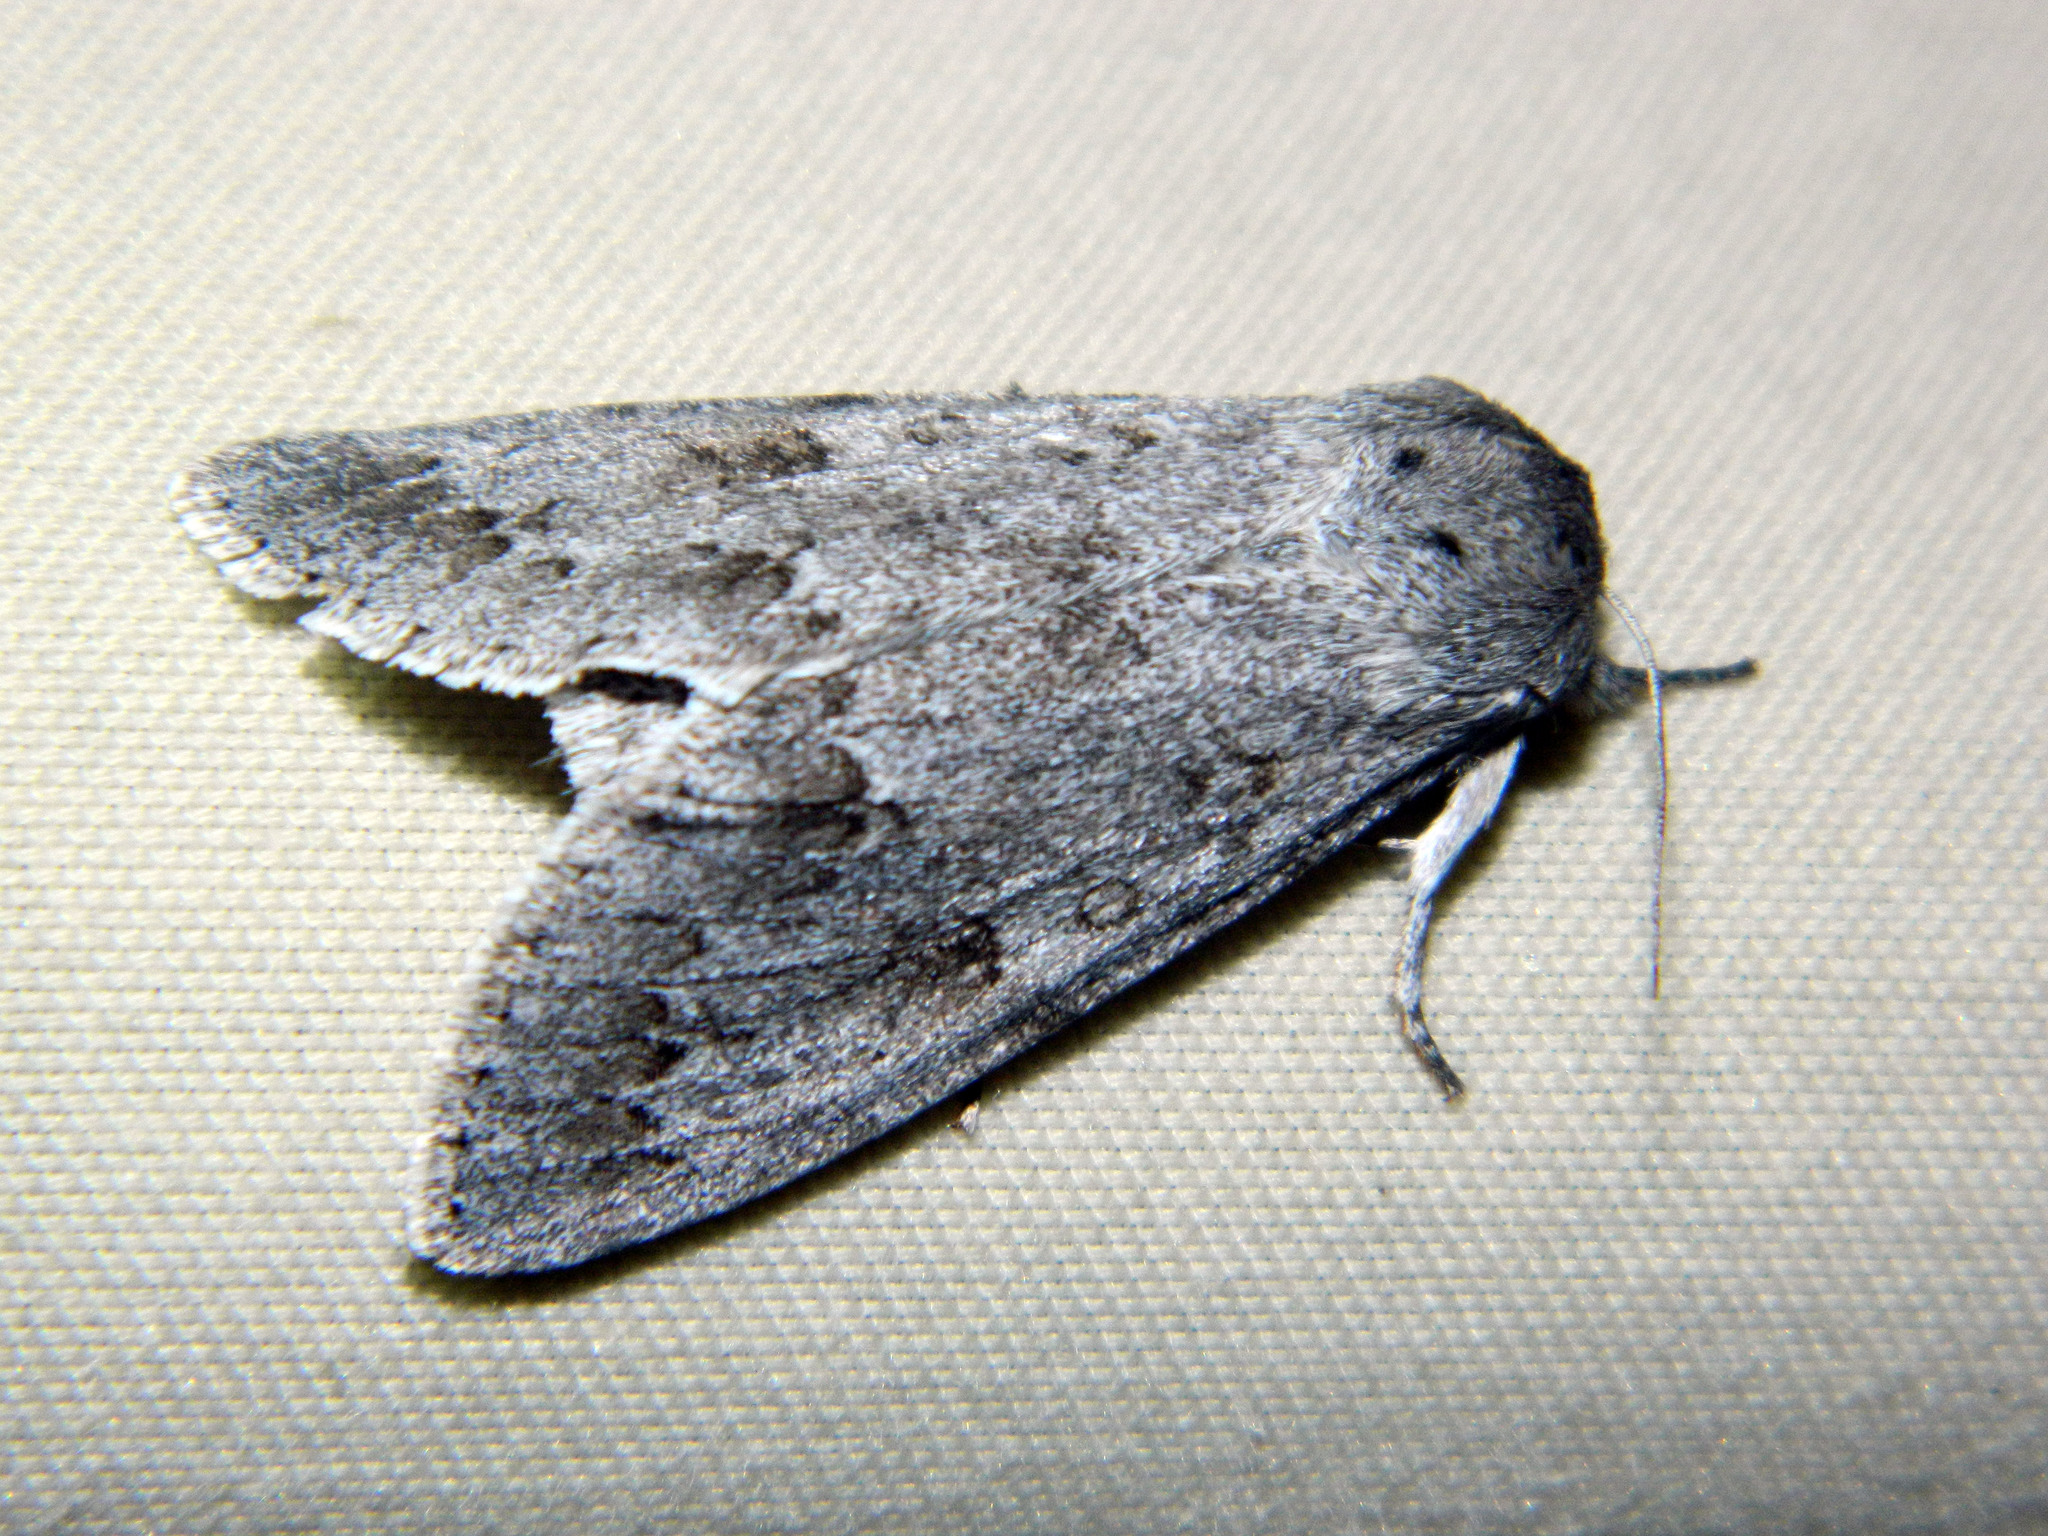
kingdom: Animalia
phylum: Arthropoda
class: Insecta
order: Lepidoptera
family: Noctuidae
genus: Acronicta
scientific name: Acronicta insita
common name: Large gray dagger
